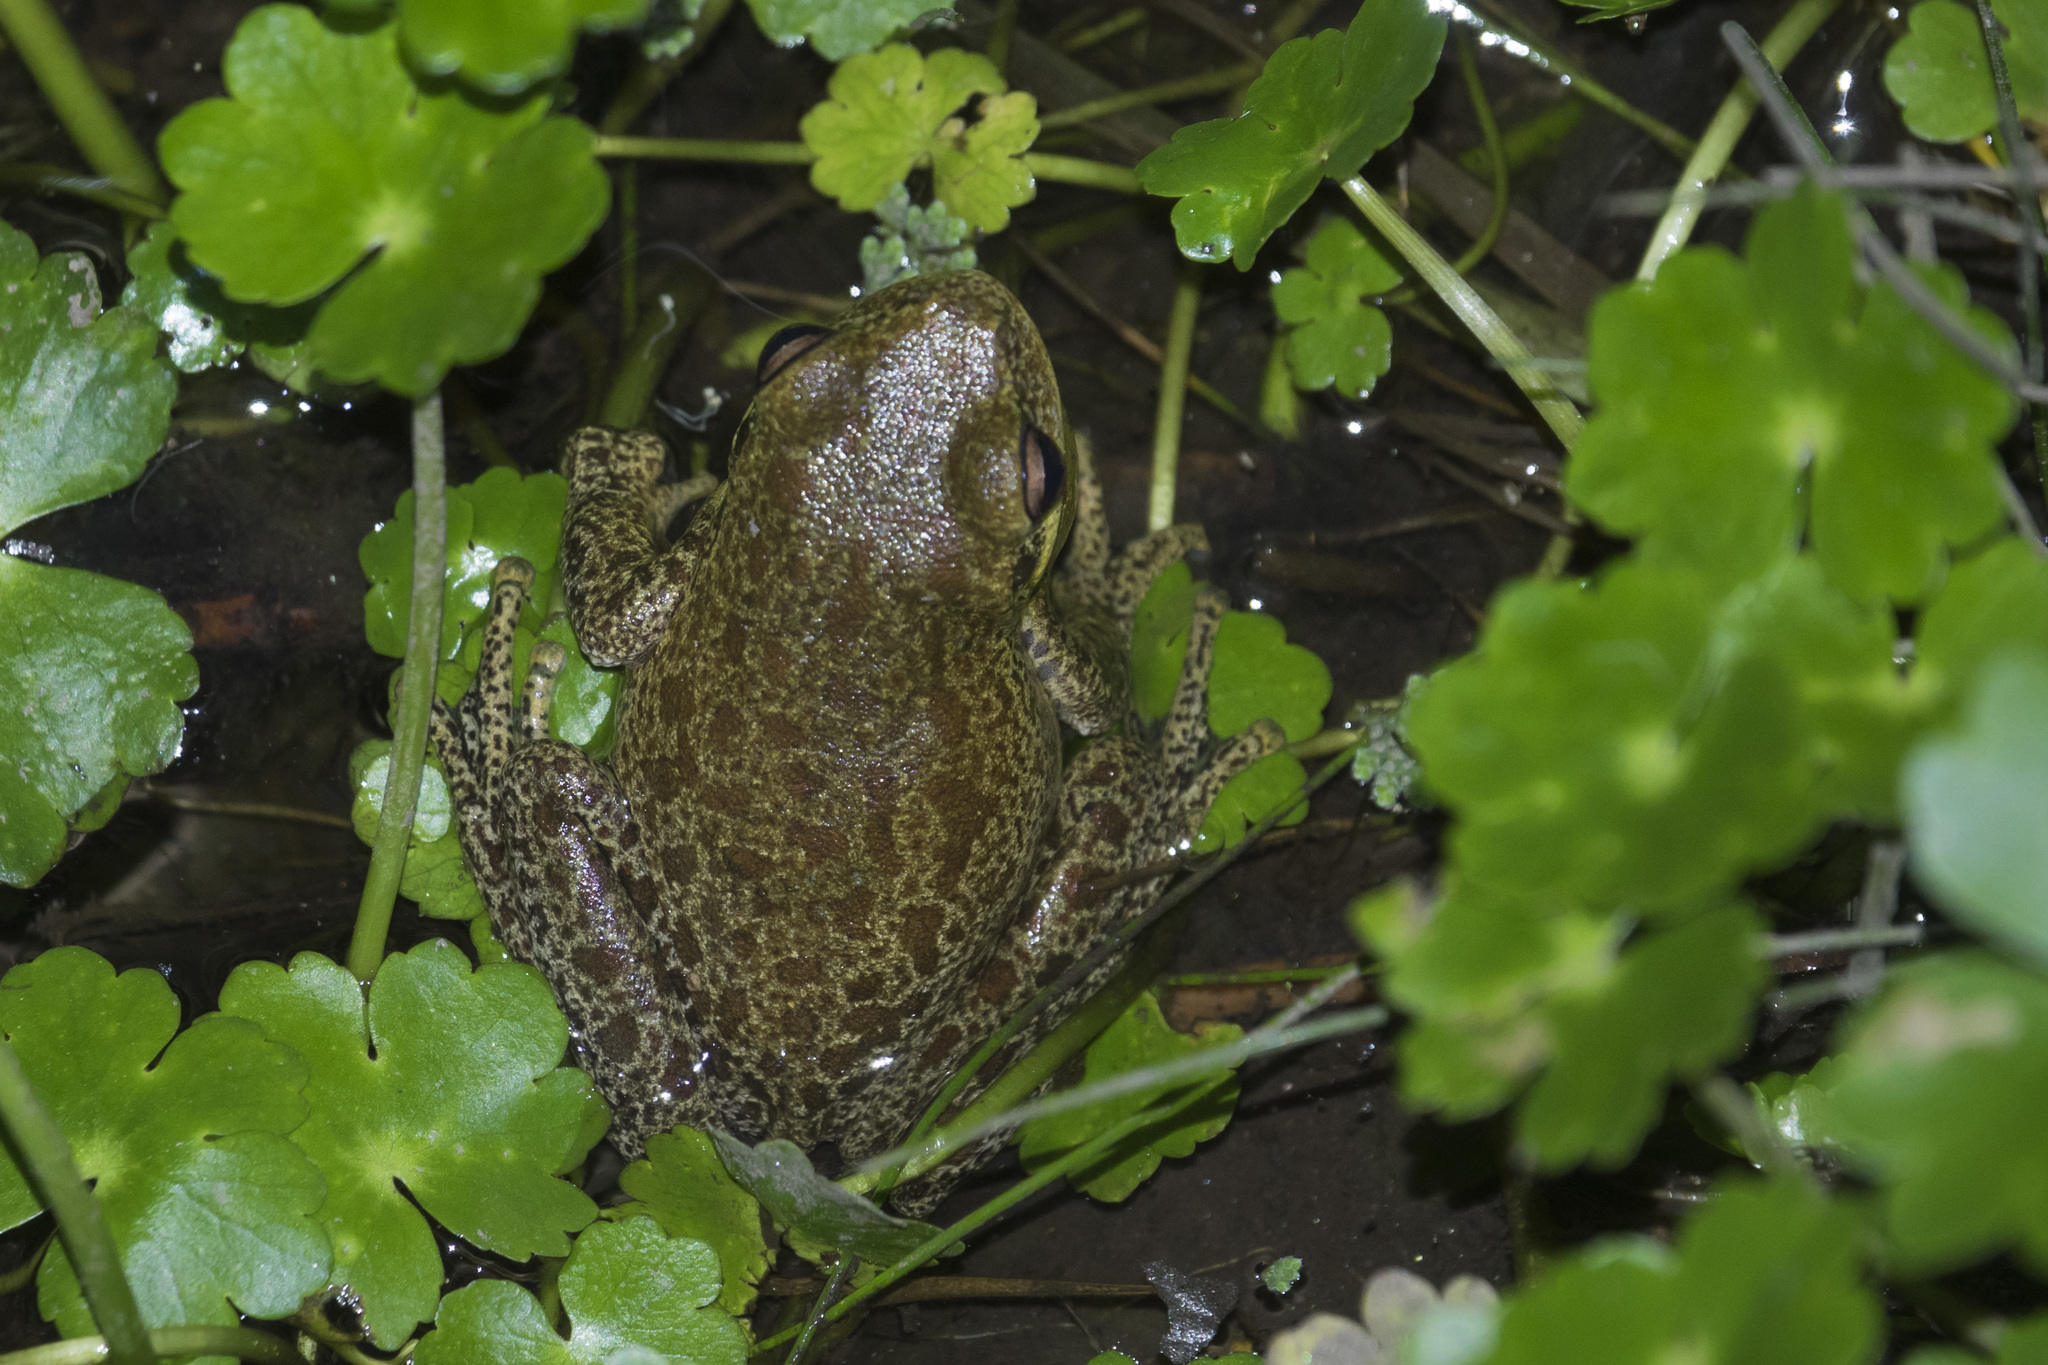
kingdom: Animalia
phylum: Chordata
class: Amphibia
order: Anura
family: Hylidae
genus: Boana
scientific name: Boana cordobae
